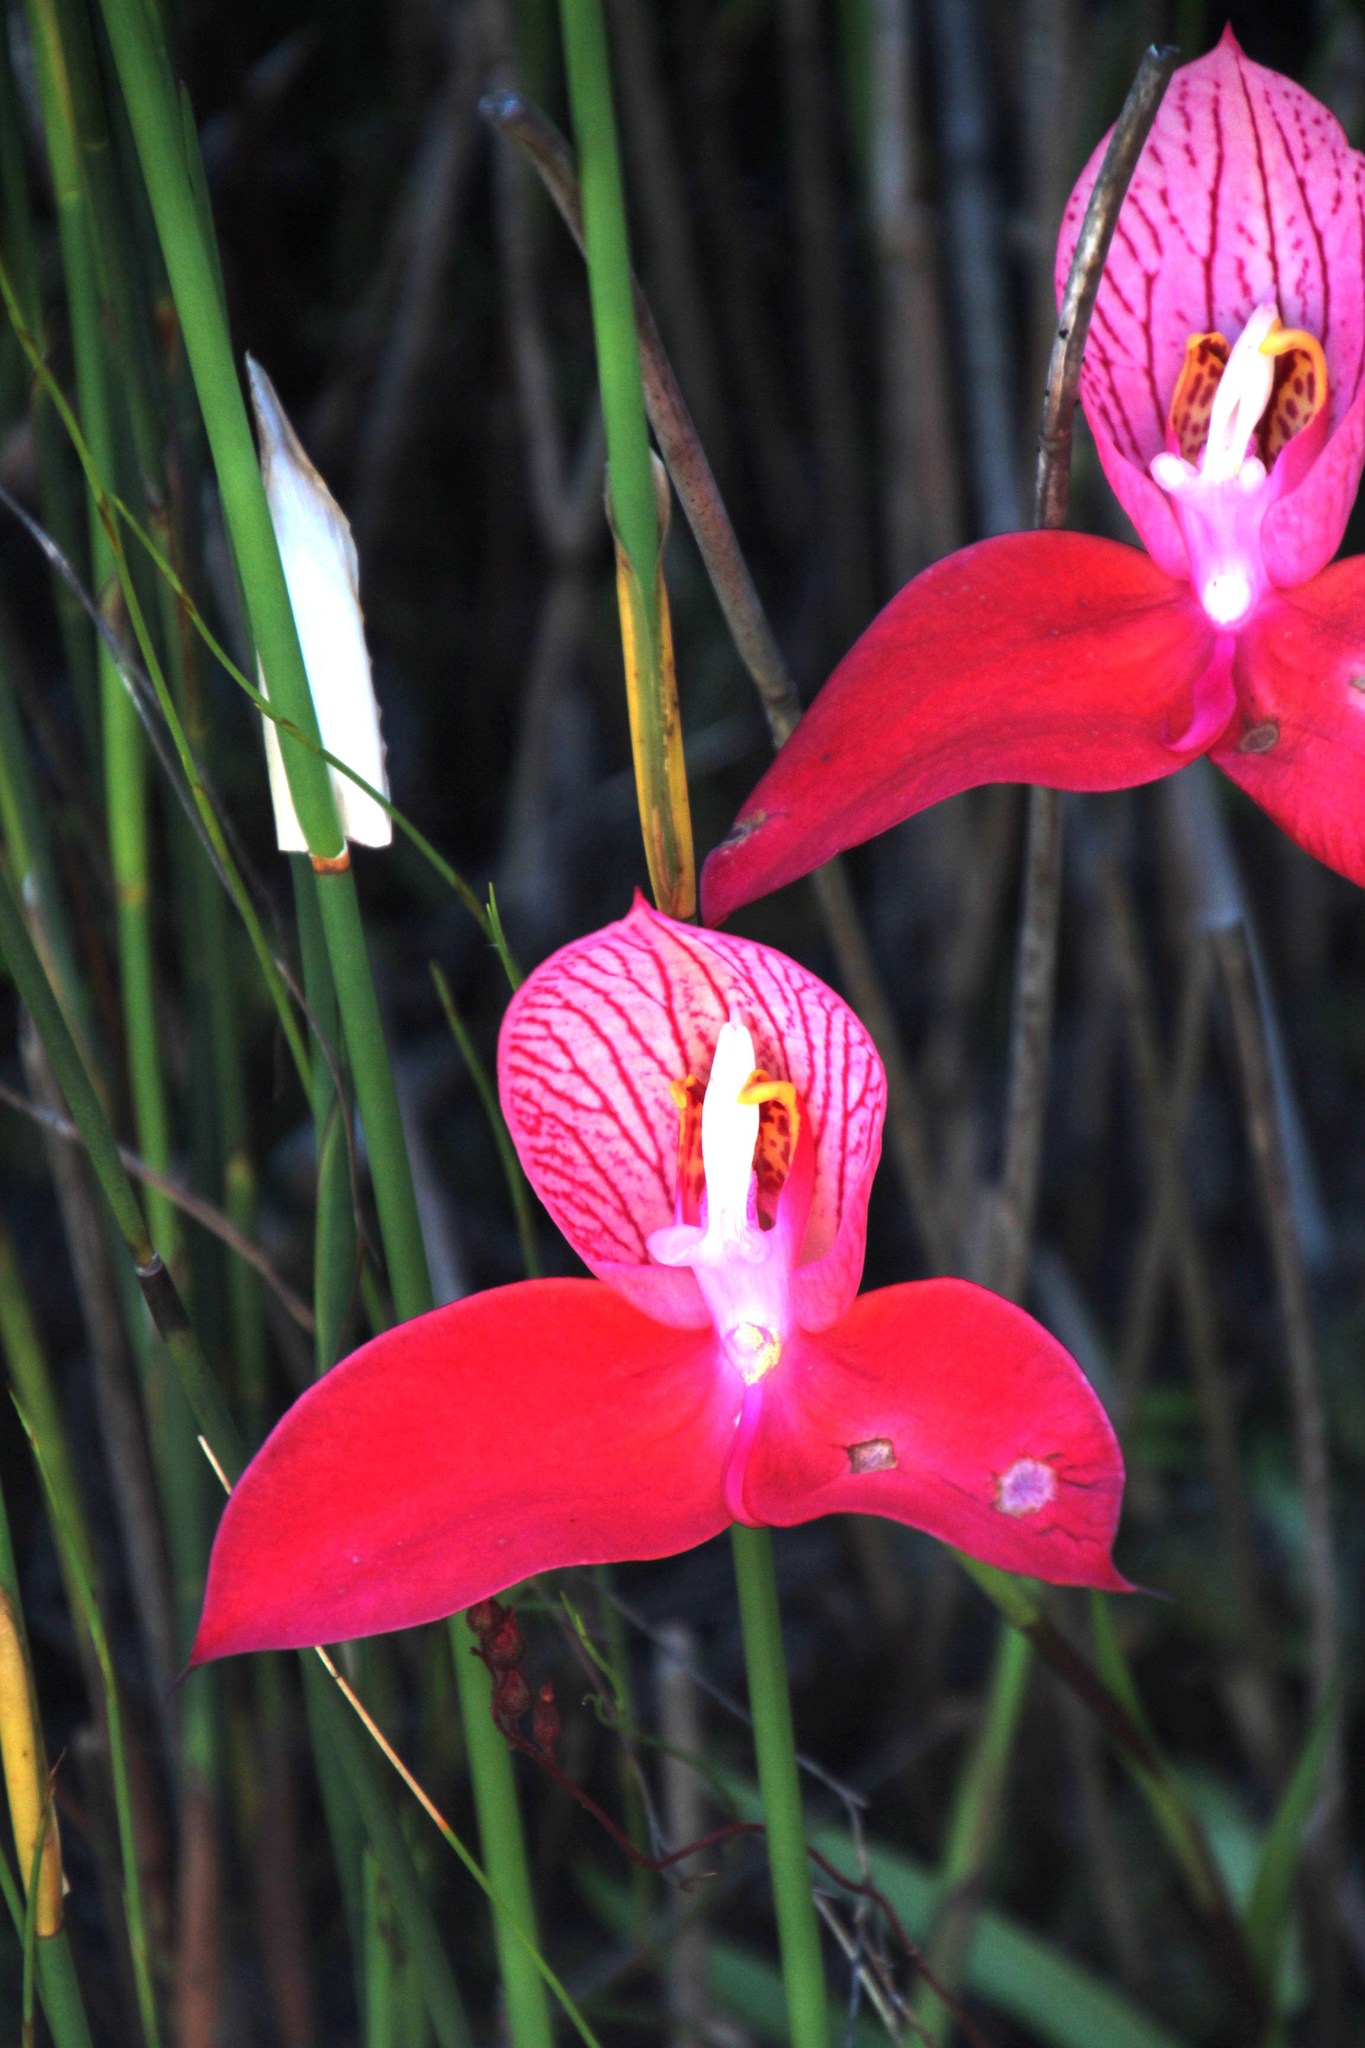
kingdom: Plantae
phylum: Tracheophyta
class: Liliopsida
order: Asparagales
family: Orchidaceae
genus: Disa
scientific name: Disa uniflora
